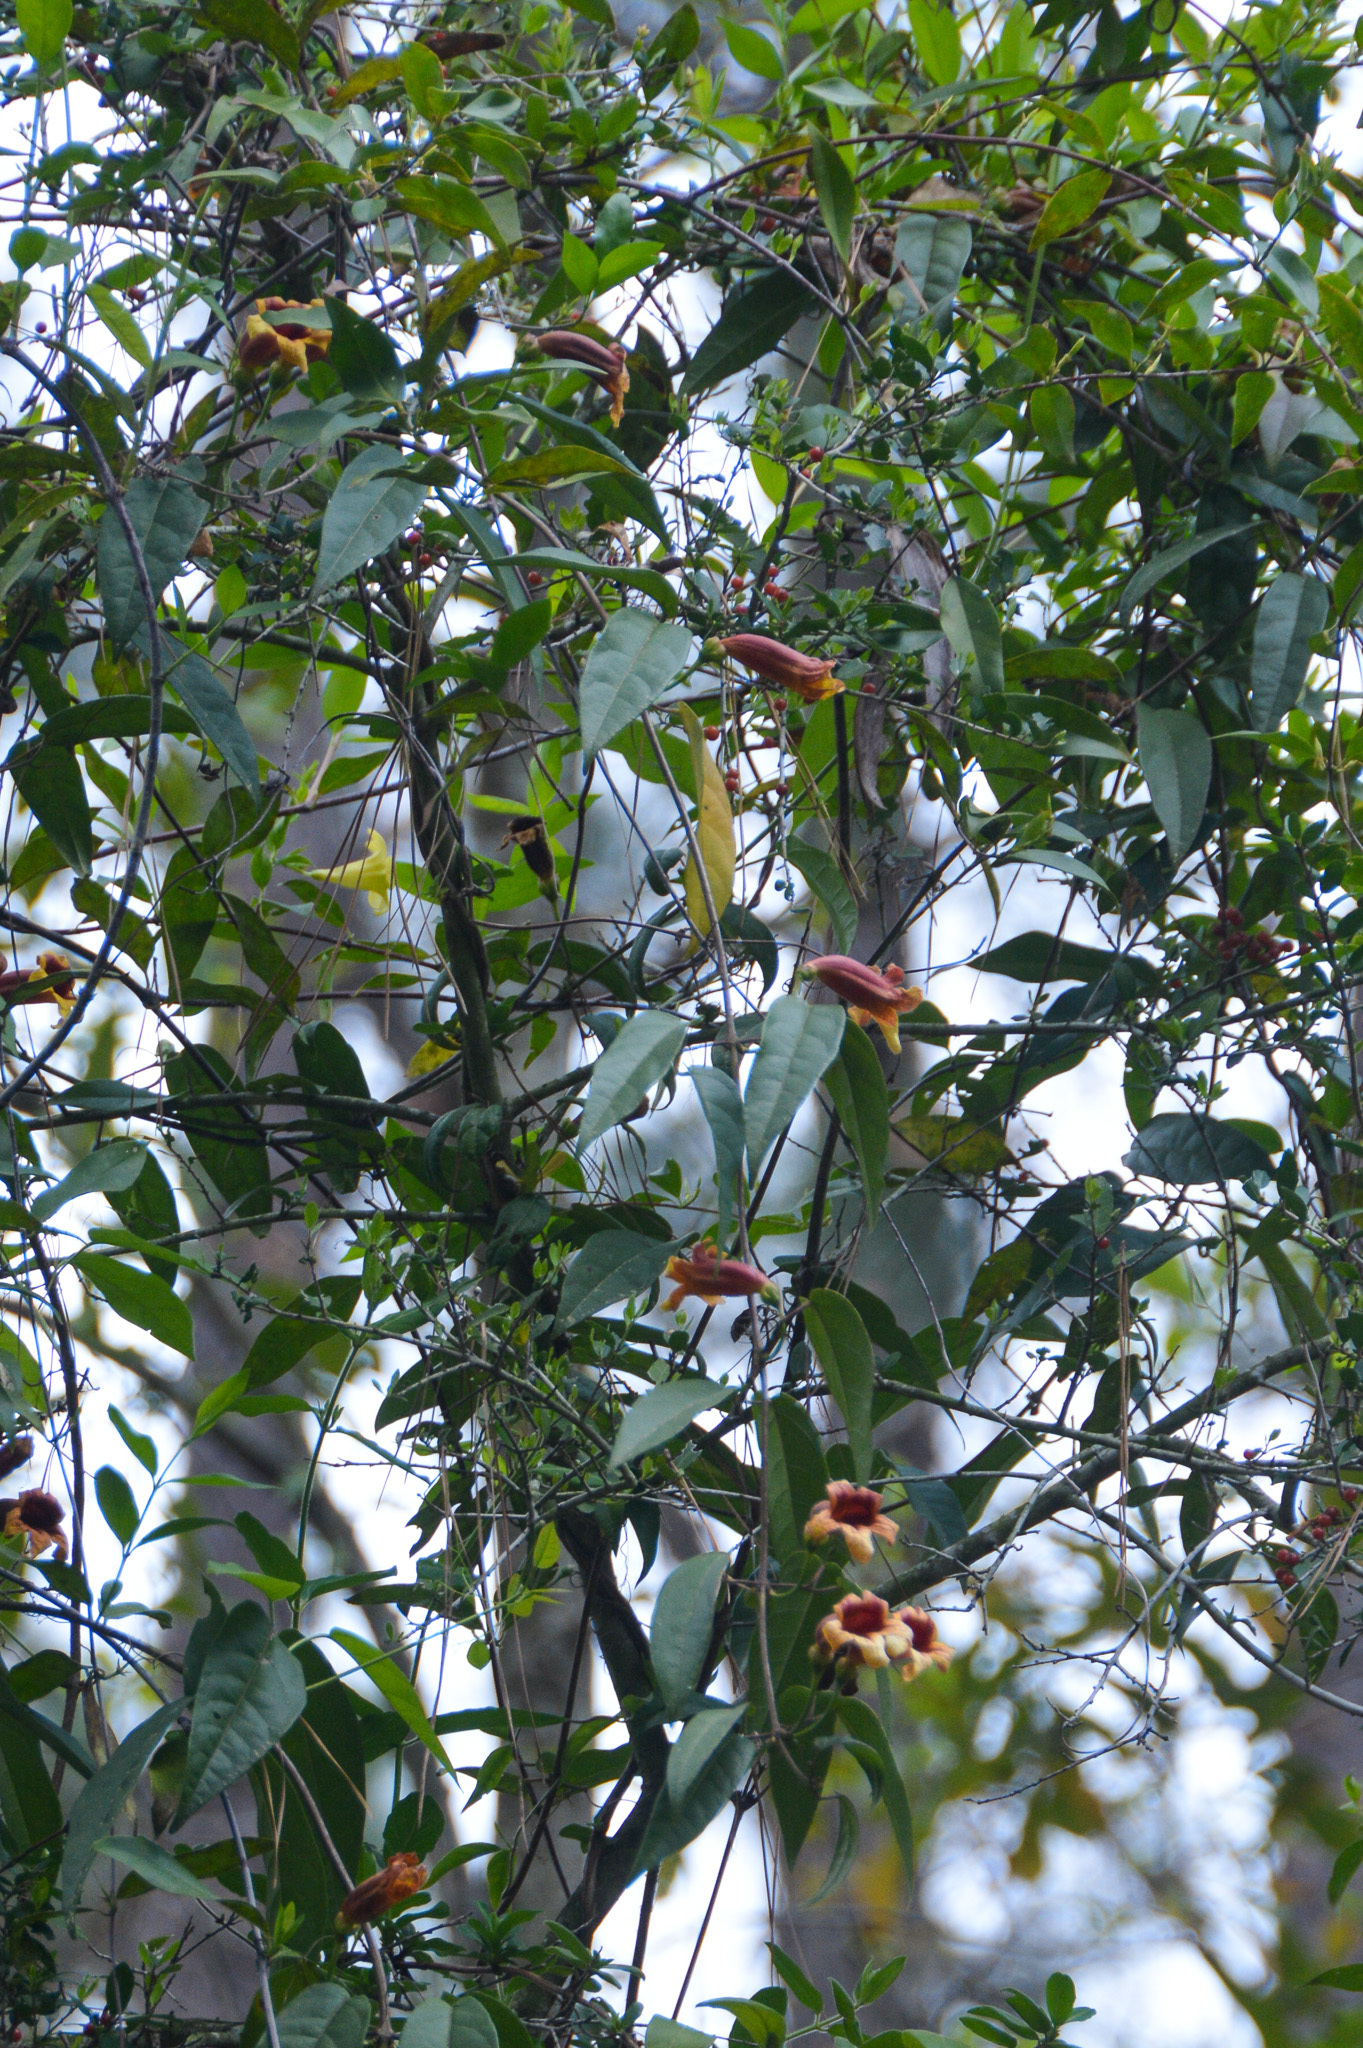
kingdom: Plantae
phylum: Tracheophyta
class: Magnoliopsida
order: Lamiales
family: Bignoniaceae
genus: Bignonia
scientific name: Bignonia capreolata
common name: Crossvine
